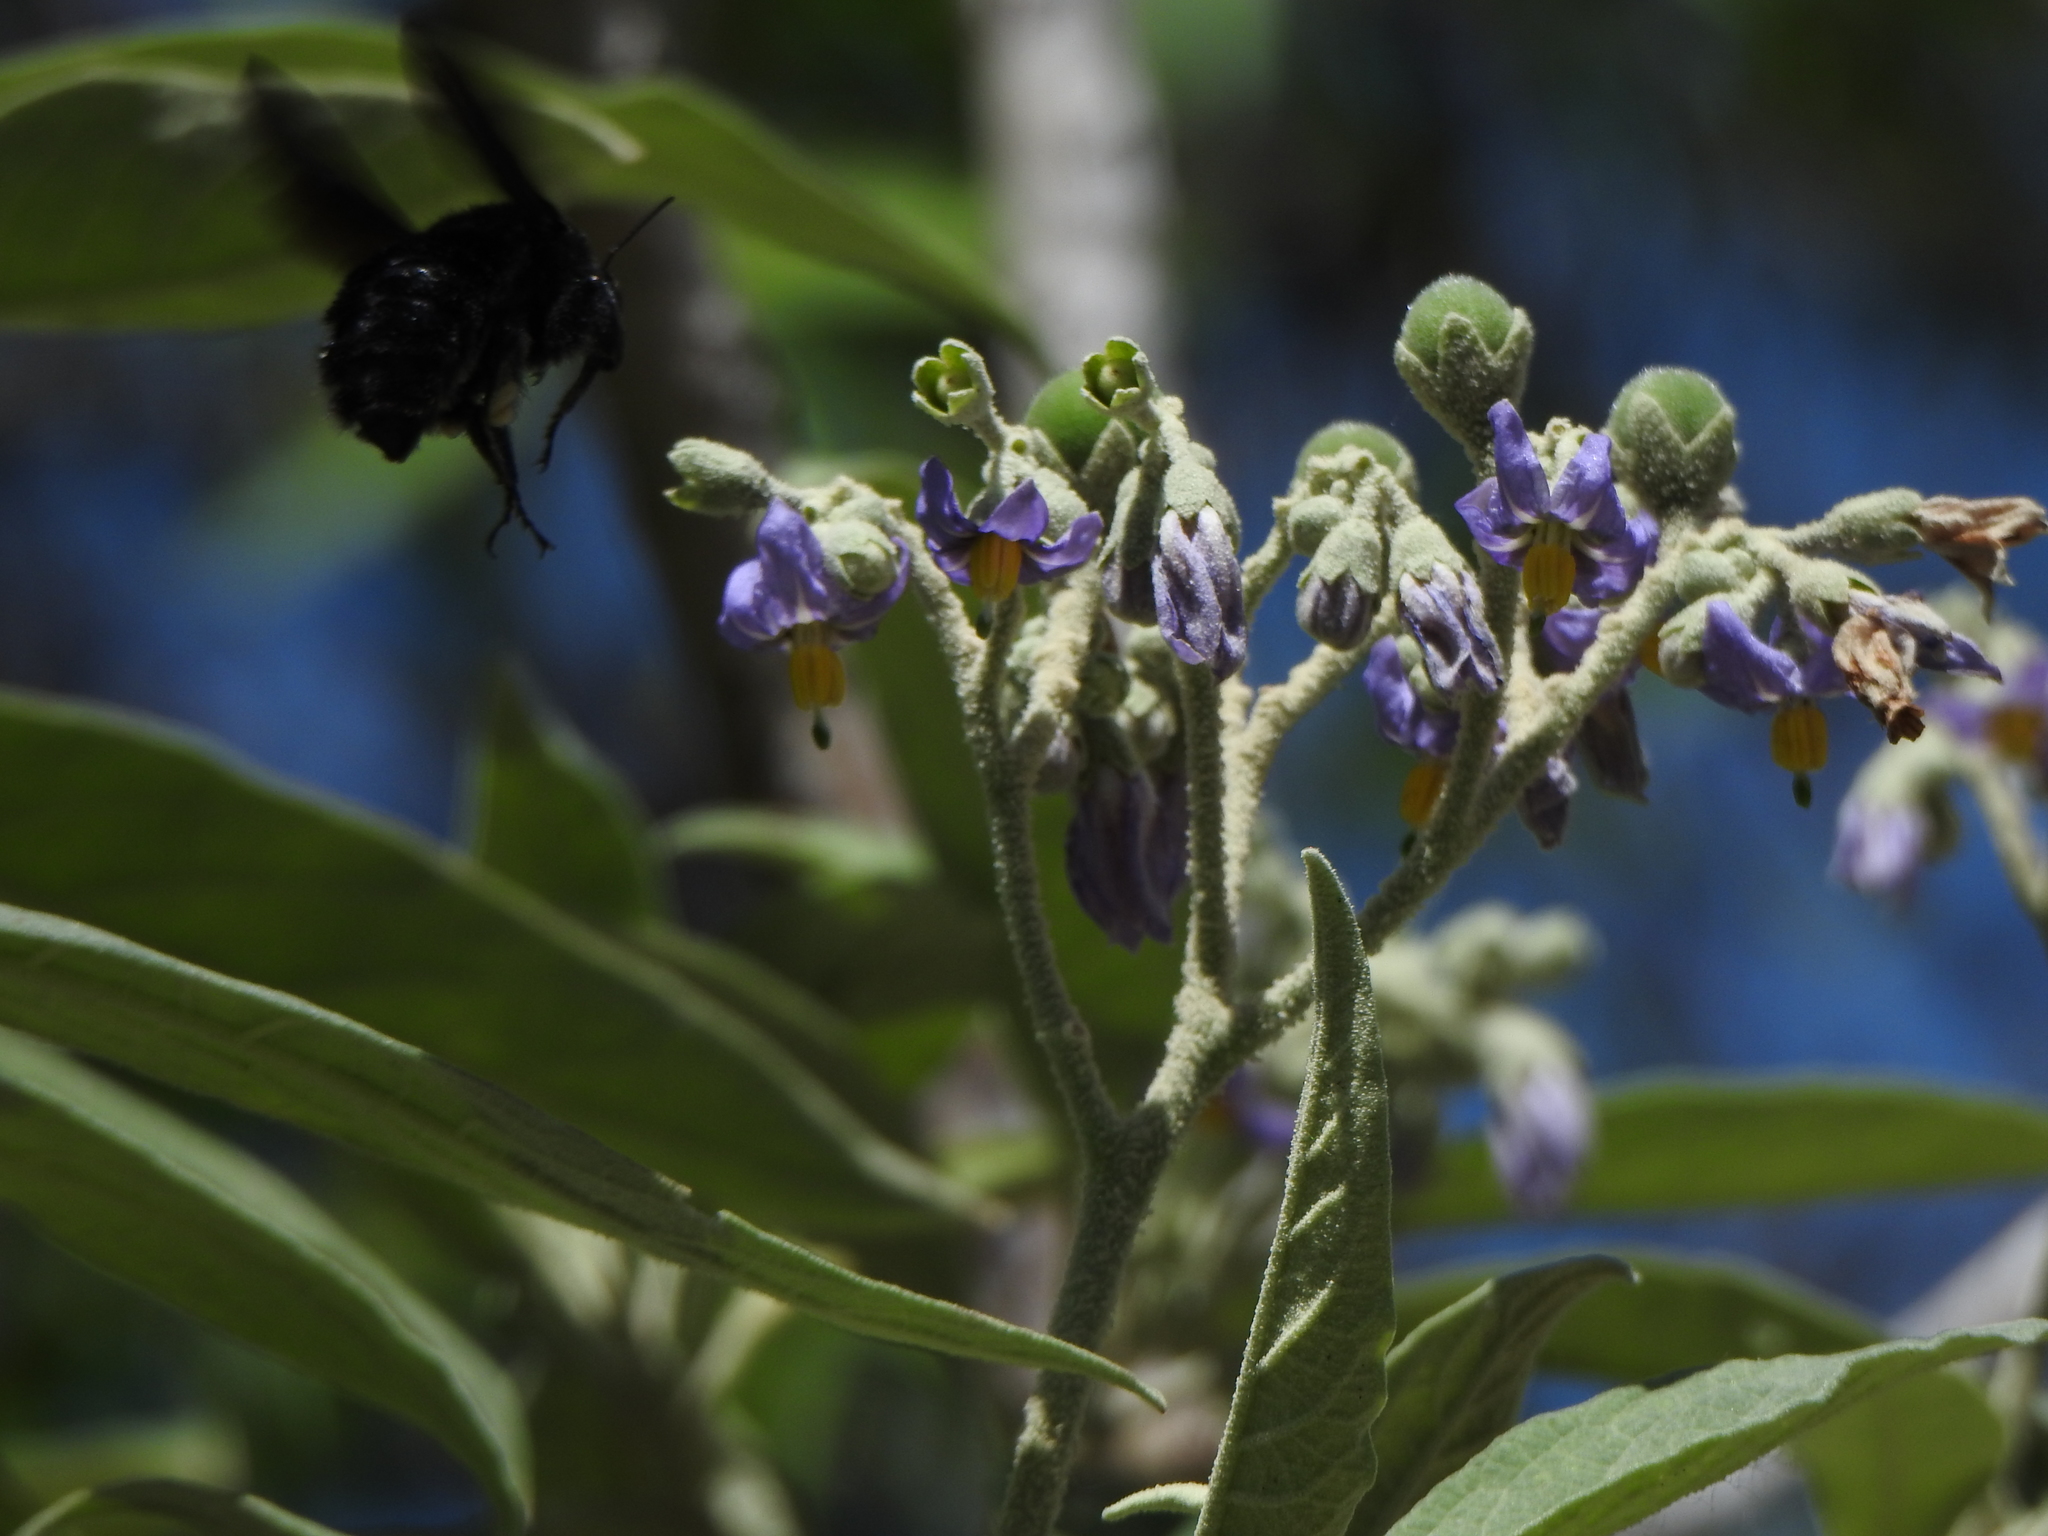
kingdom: Animalia
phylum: Arthropoda
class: Insecta
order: Hymenoptera
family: Apidae
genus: Bombus
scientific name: Bombus pauloensis
